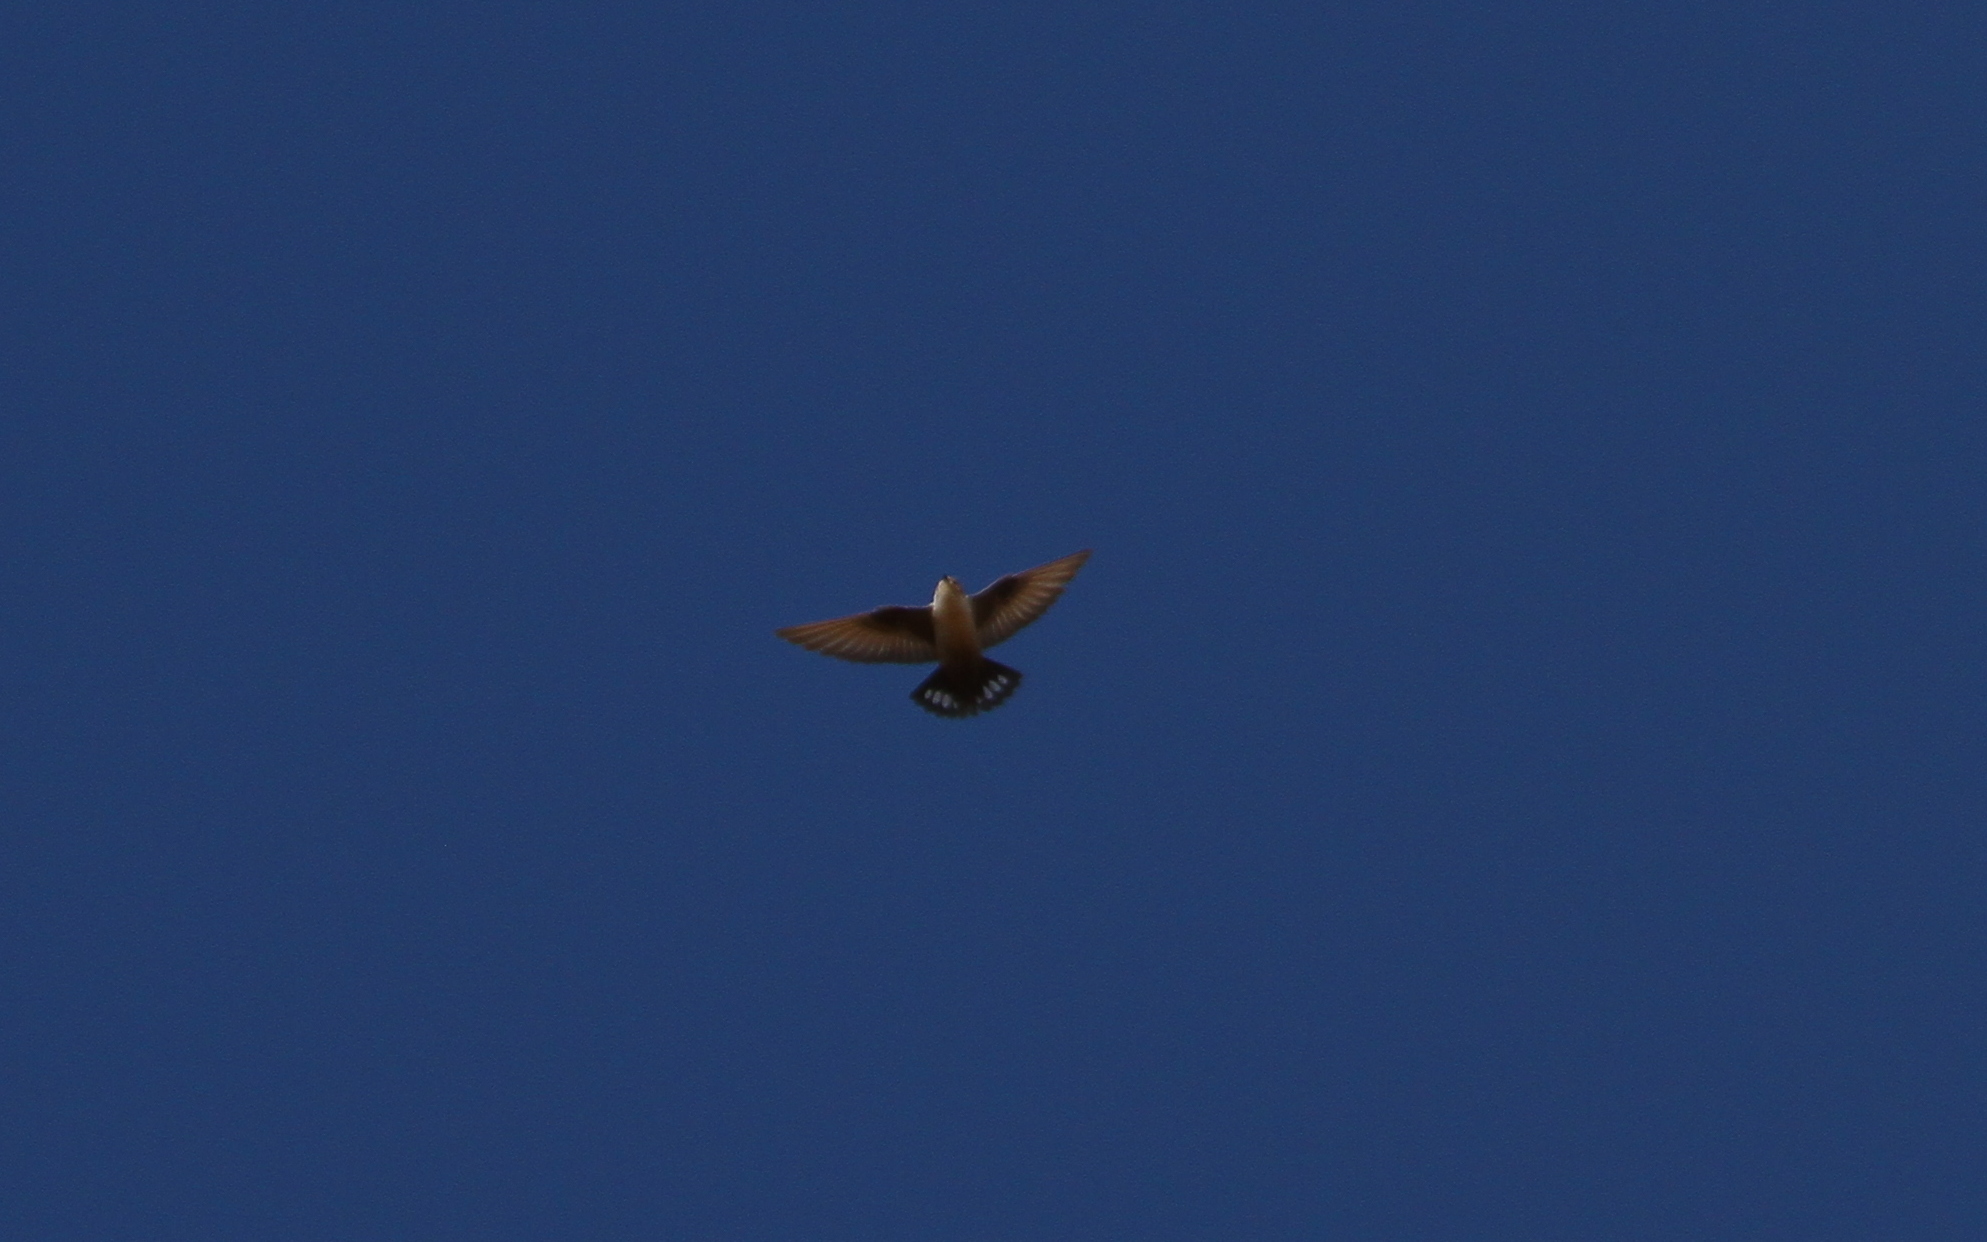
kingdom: Animalia
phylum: Chordata
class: Aves
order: Passeriformes
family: Hirundinidae
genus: Ptyonoprogne
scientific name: Ptyonoprogne rupestris
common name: Eurasian crag martin
